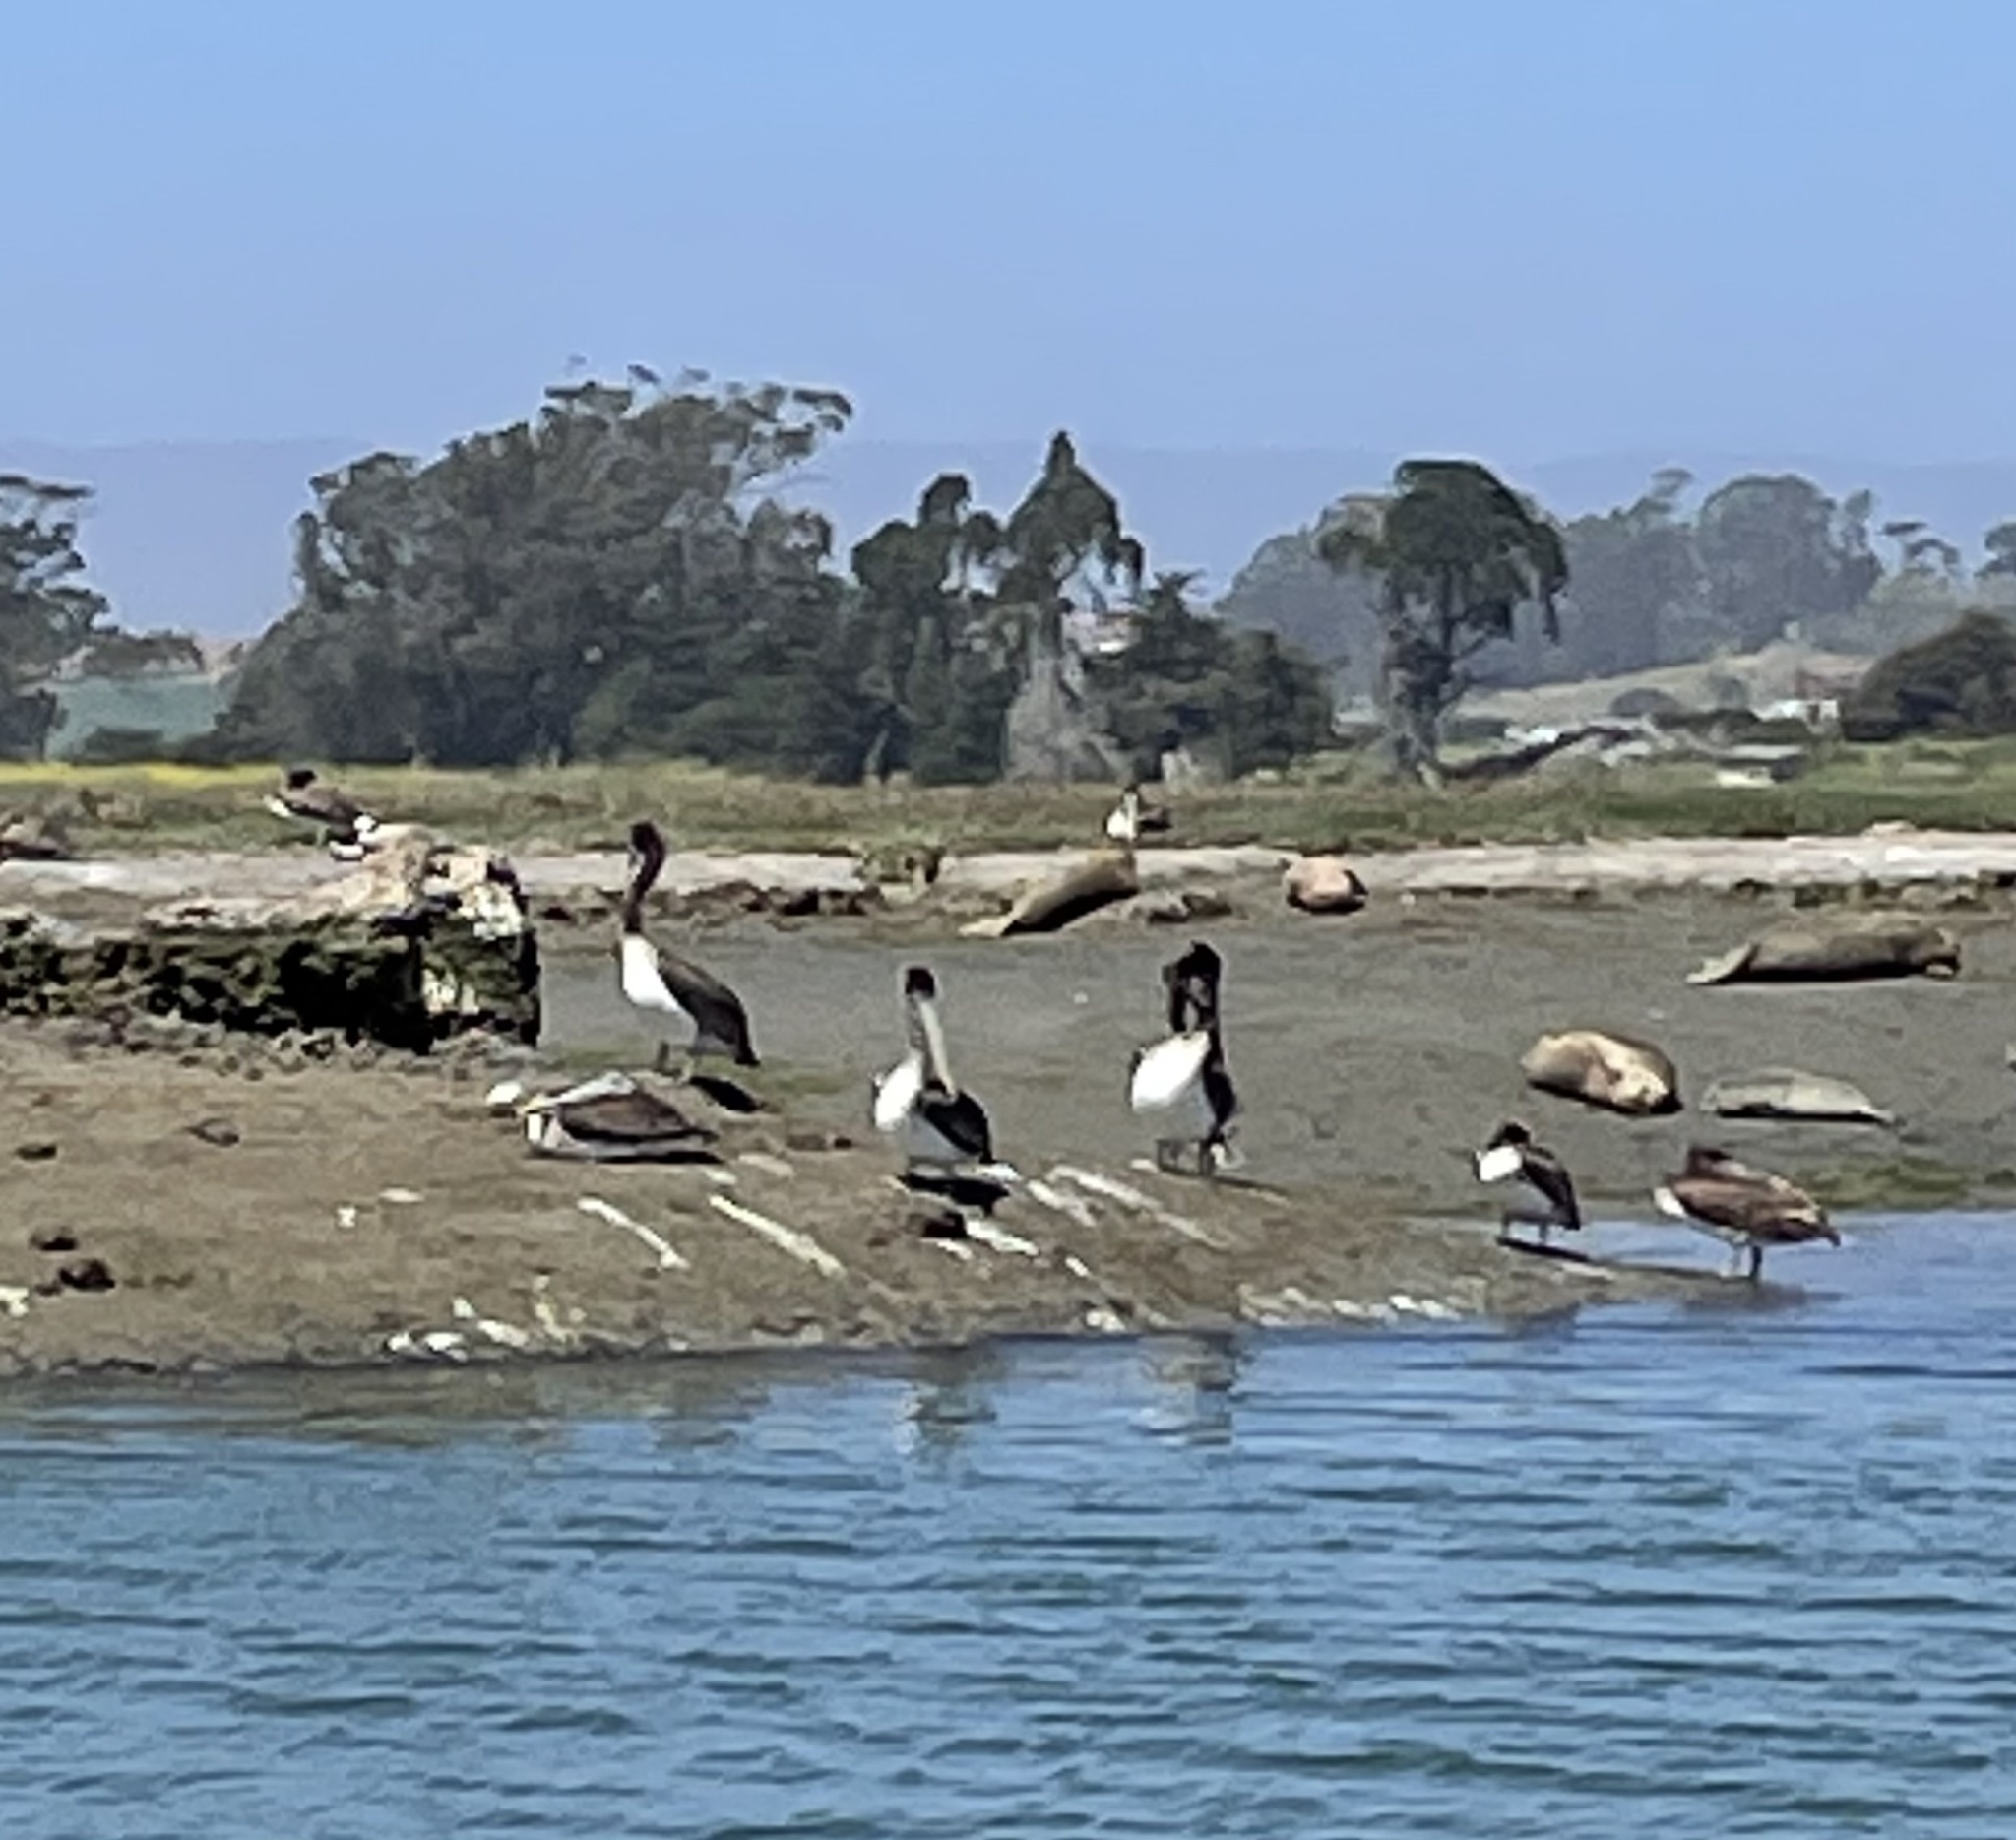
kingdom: Animalia
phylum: Chordata
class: Aves
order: Pelecaniformes
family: Pelecanidae
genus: Pelecanus
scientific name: Pelecanus occidentalis
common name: Brown pelican
